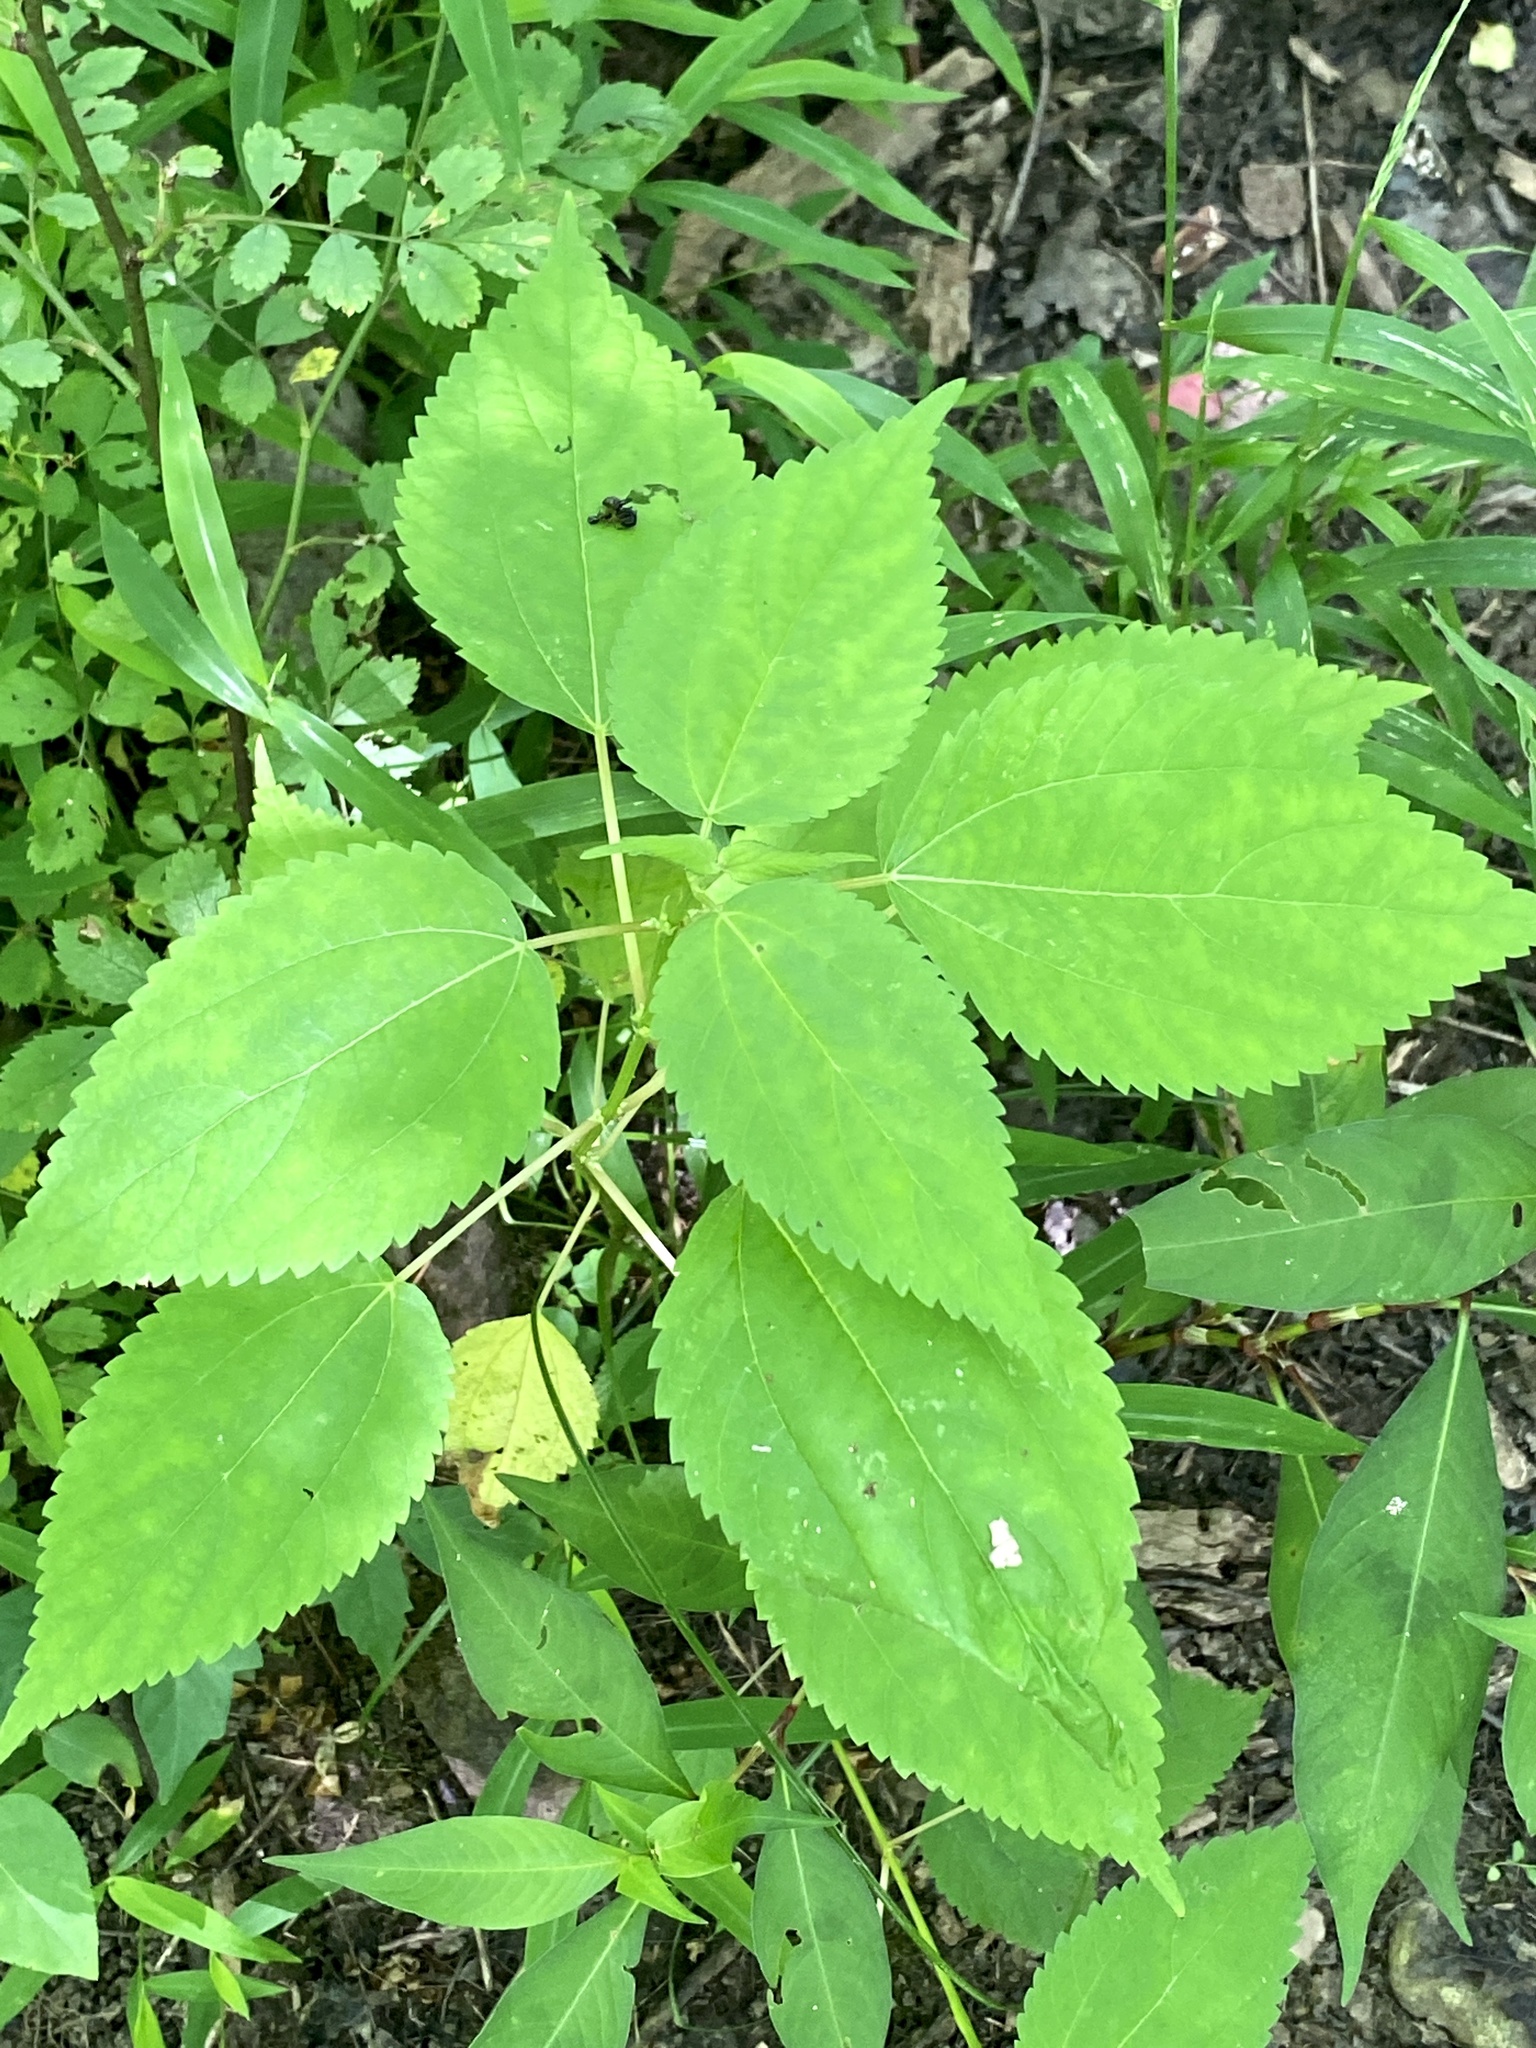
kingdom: Plantae
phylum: Tracheophyta
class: Magnoliopsida
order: Rosales
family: Urticaceae
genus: Boehmeria
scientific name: Boehmeria cylindrica
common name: Bog-hemp
